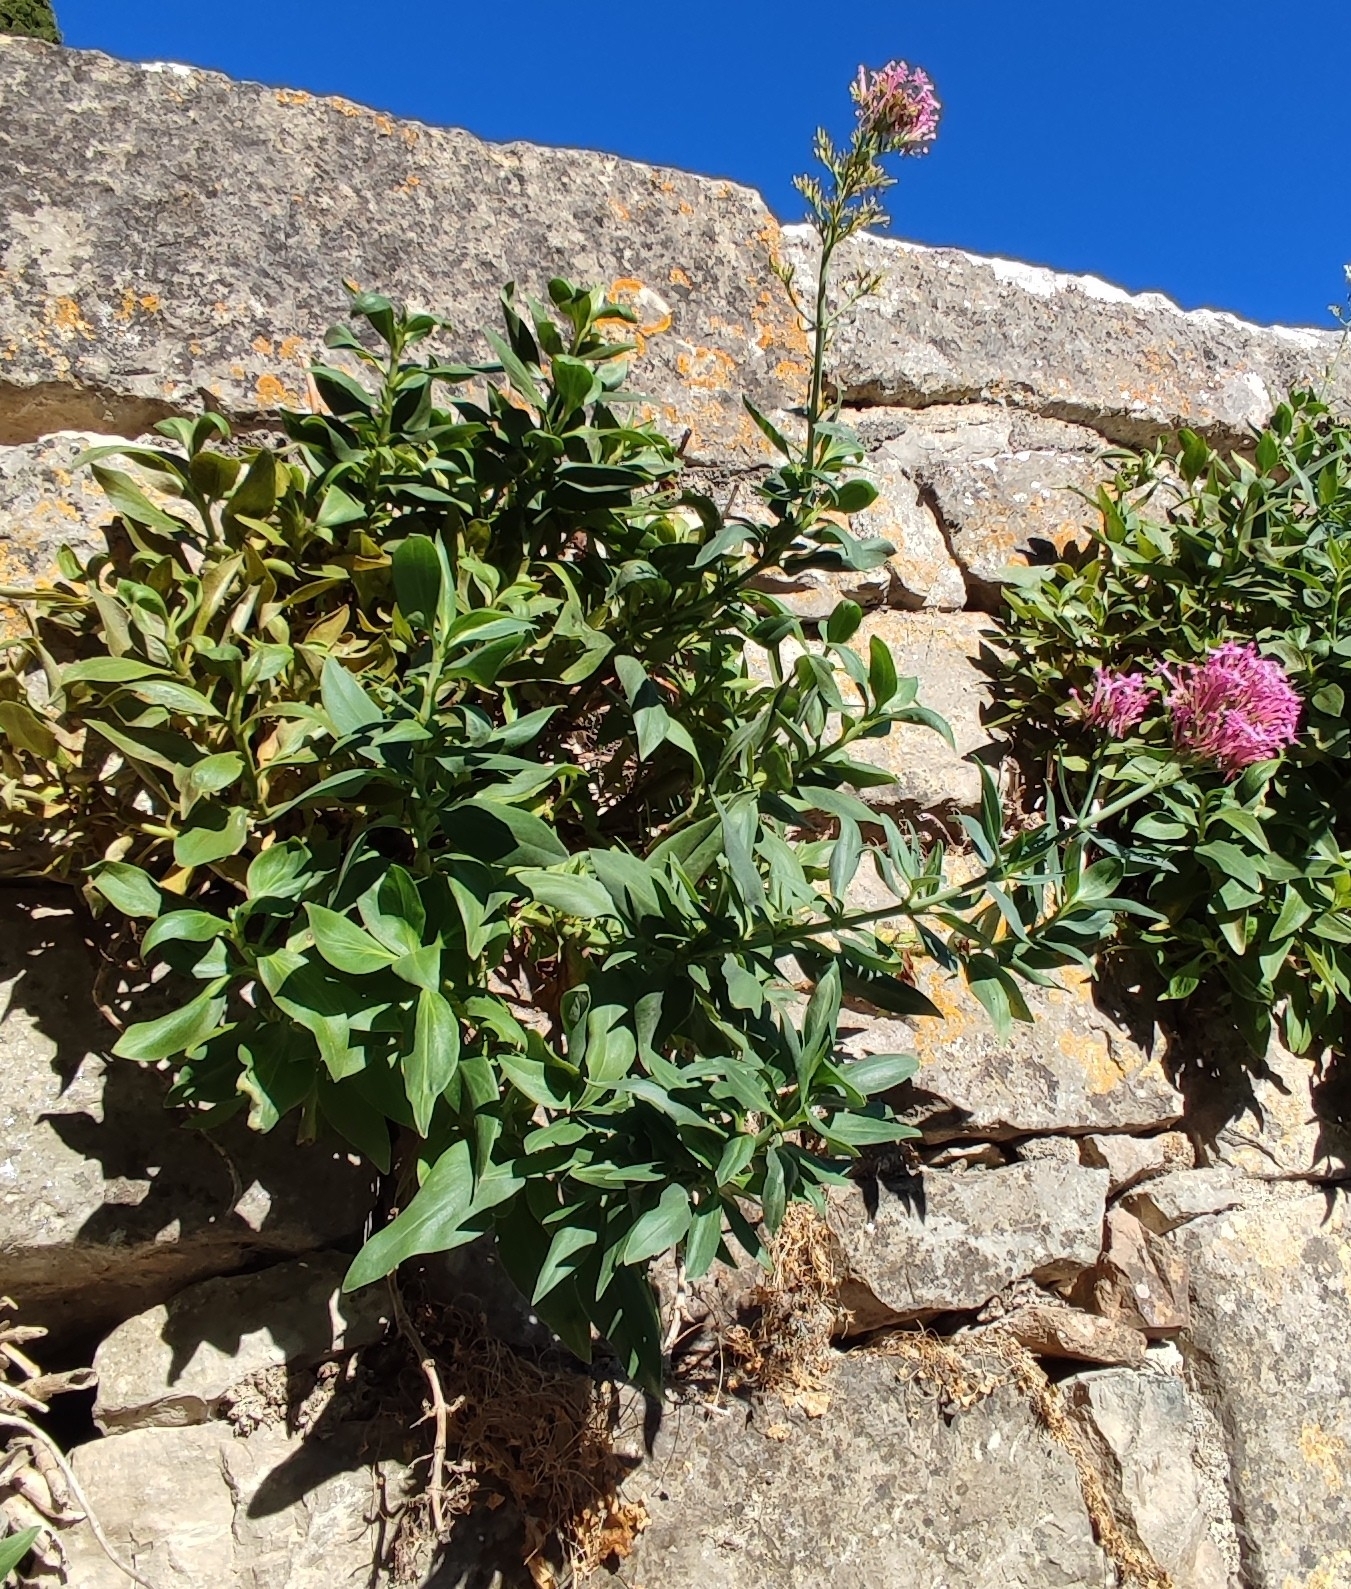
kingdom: Plantae
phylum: Tracheophyta
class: Magnoliopsida
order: Dipsacales
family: Caprifoliaceae
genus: Centranthus
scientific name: Centranthus ruber
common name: Red valerian
